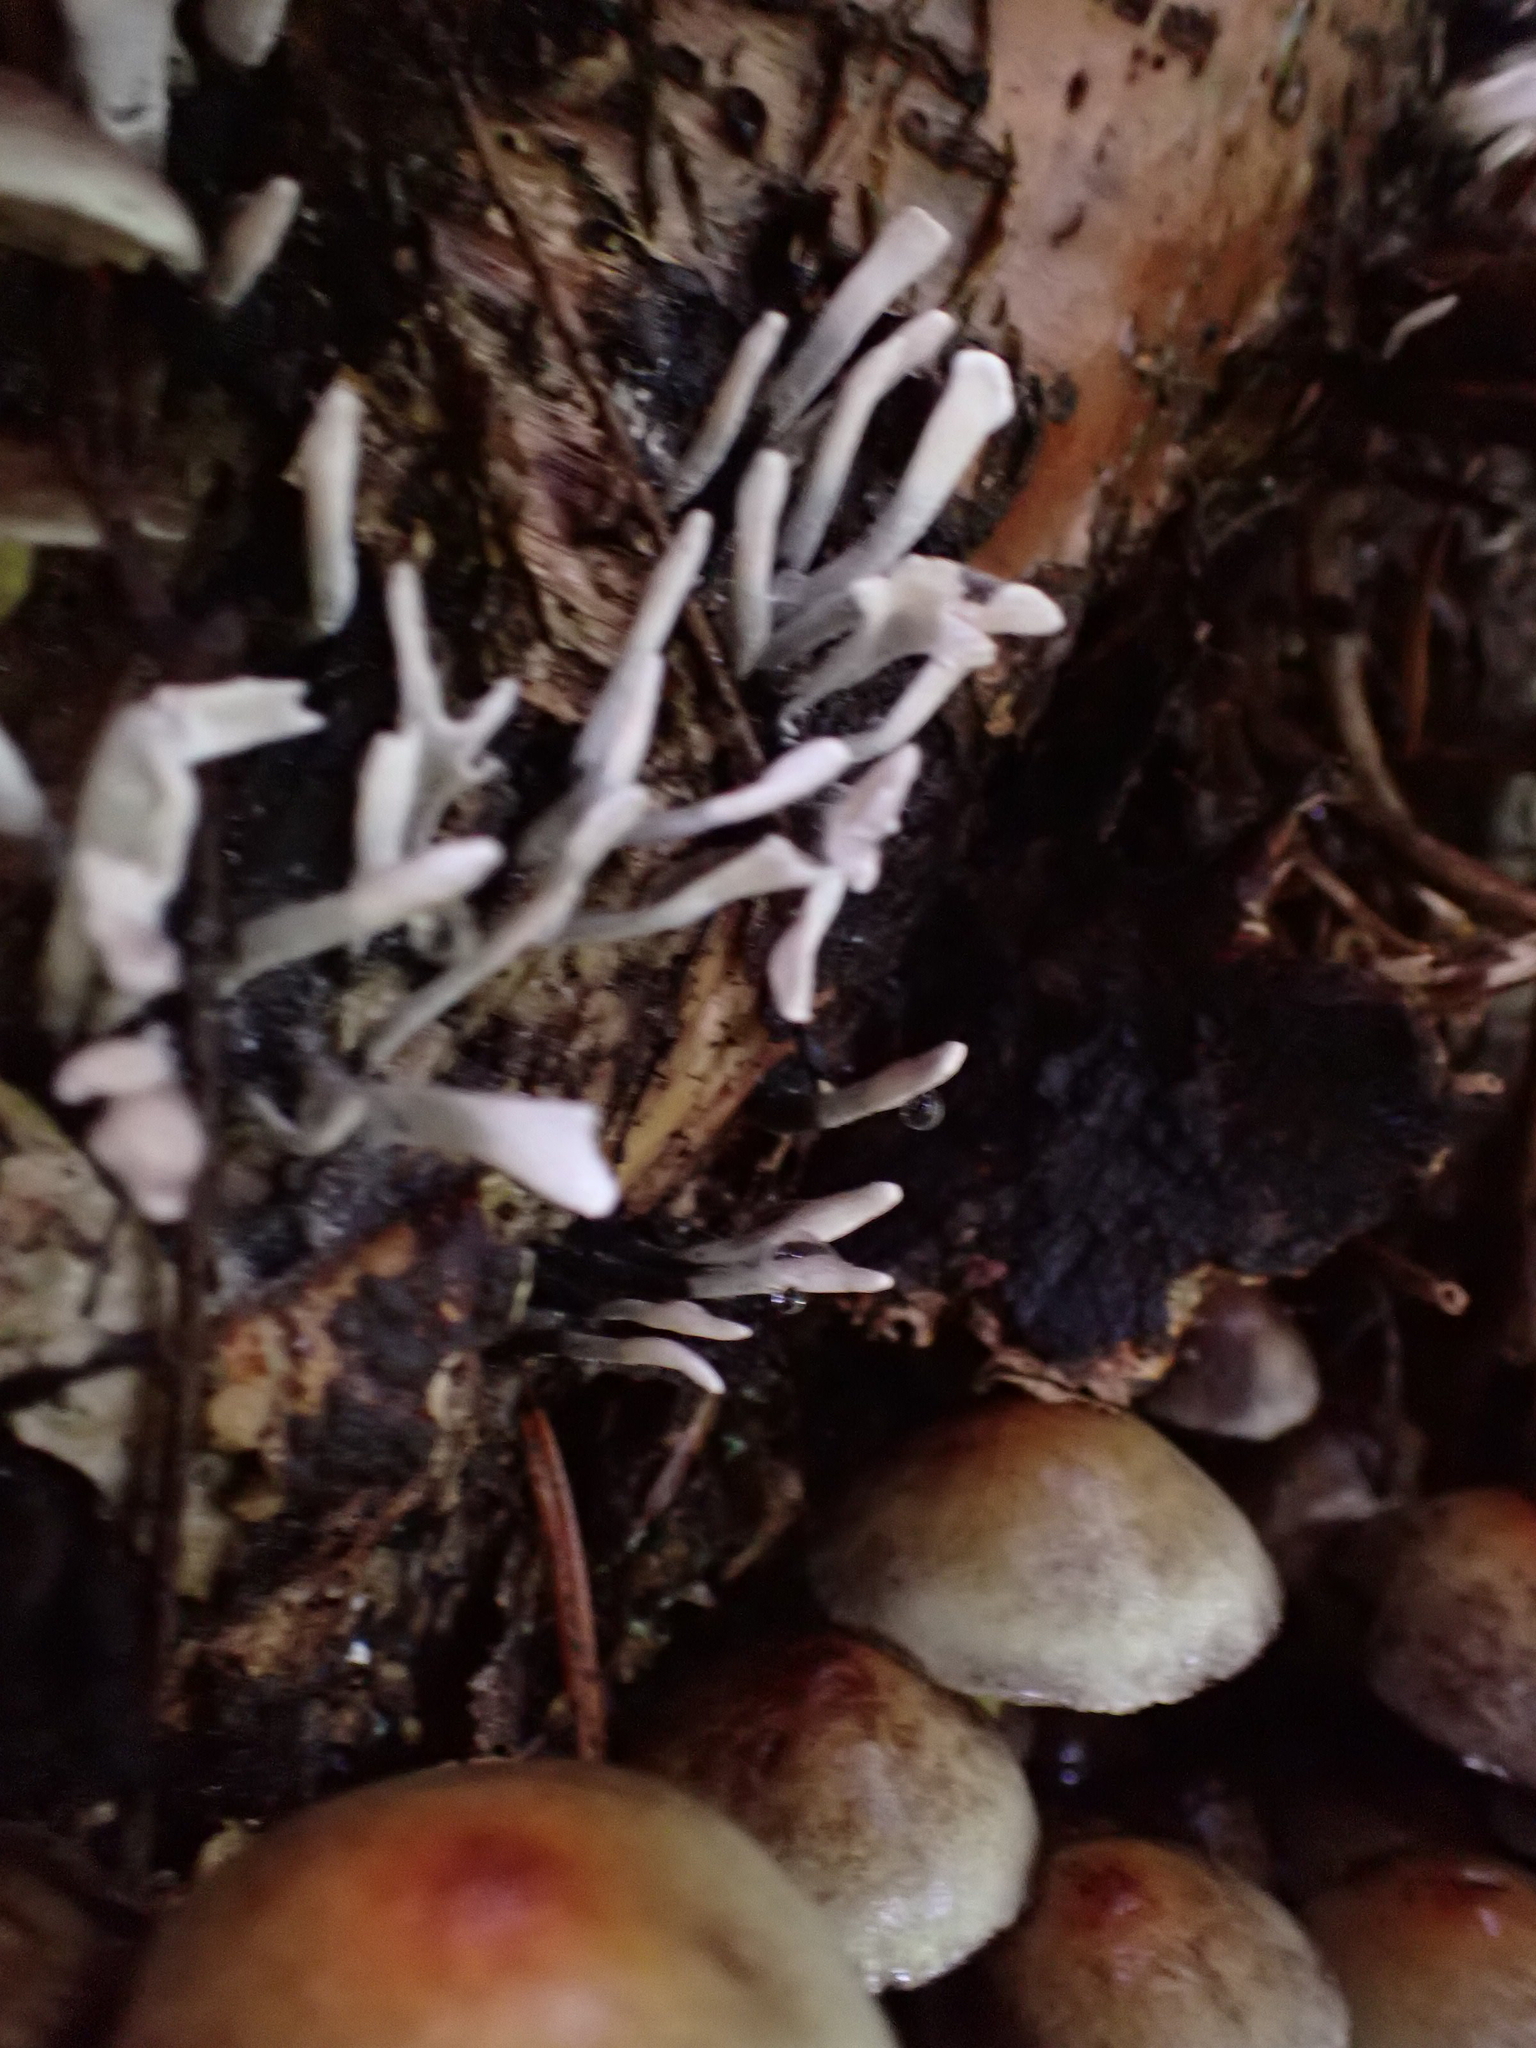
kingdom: Fungi
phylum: Ascomycota
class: Sordariomycetes
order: Xylariales
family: Xylariaceae
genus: Xylaria
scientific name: Xylaria hypoxylon
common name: Candle-snuff fungus
